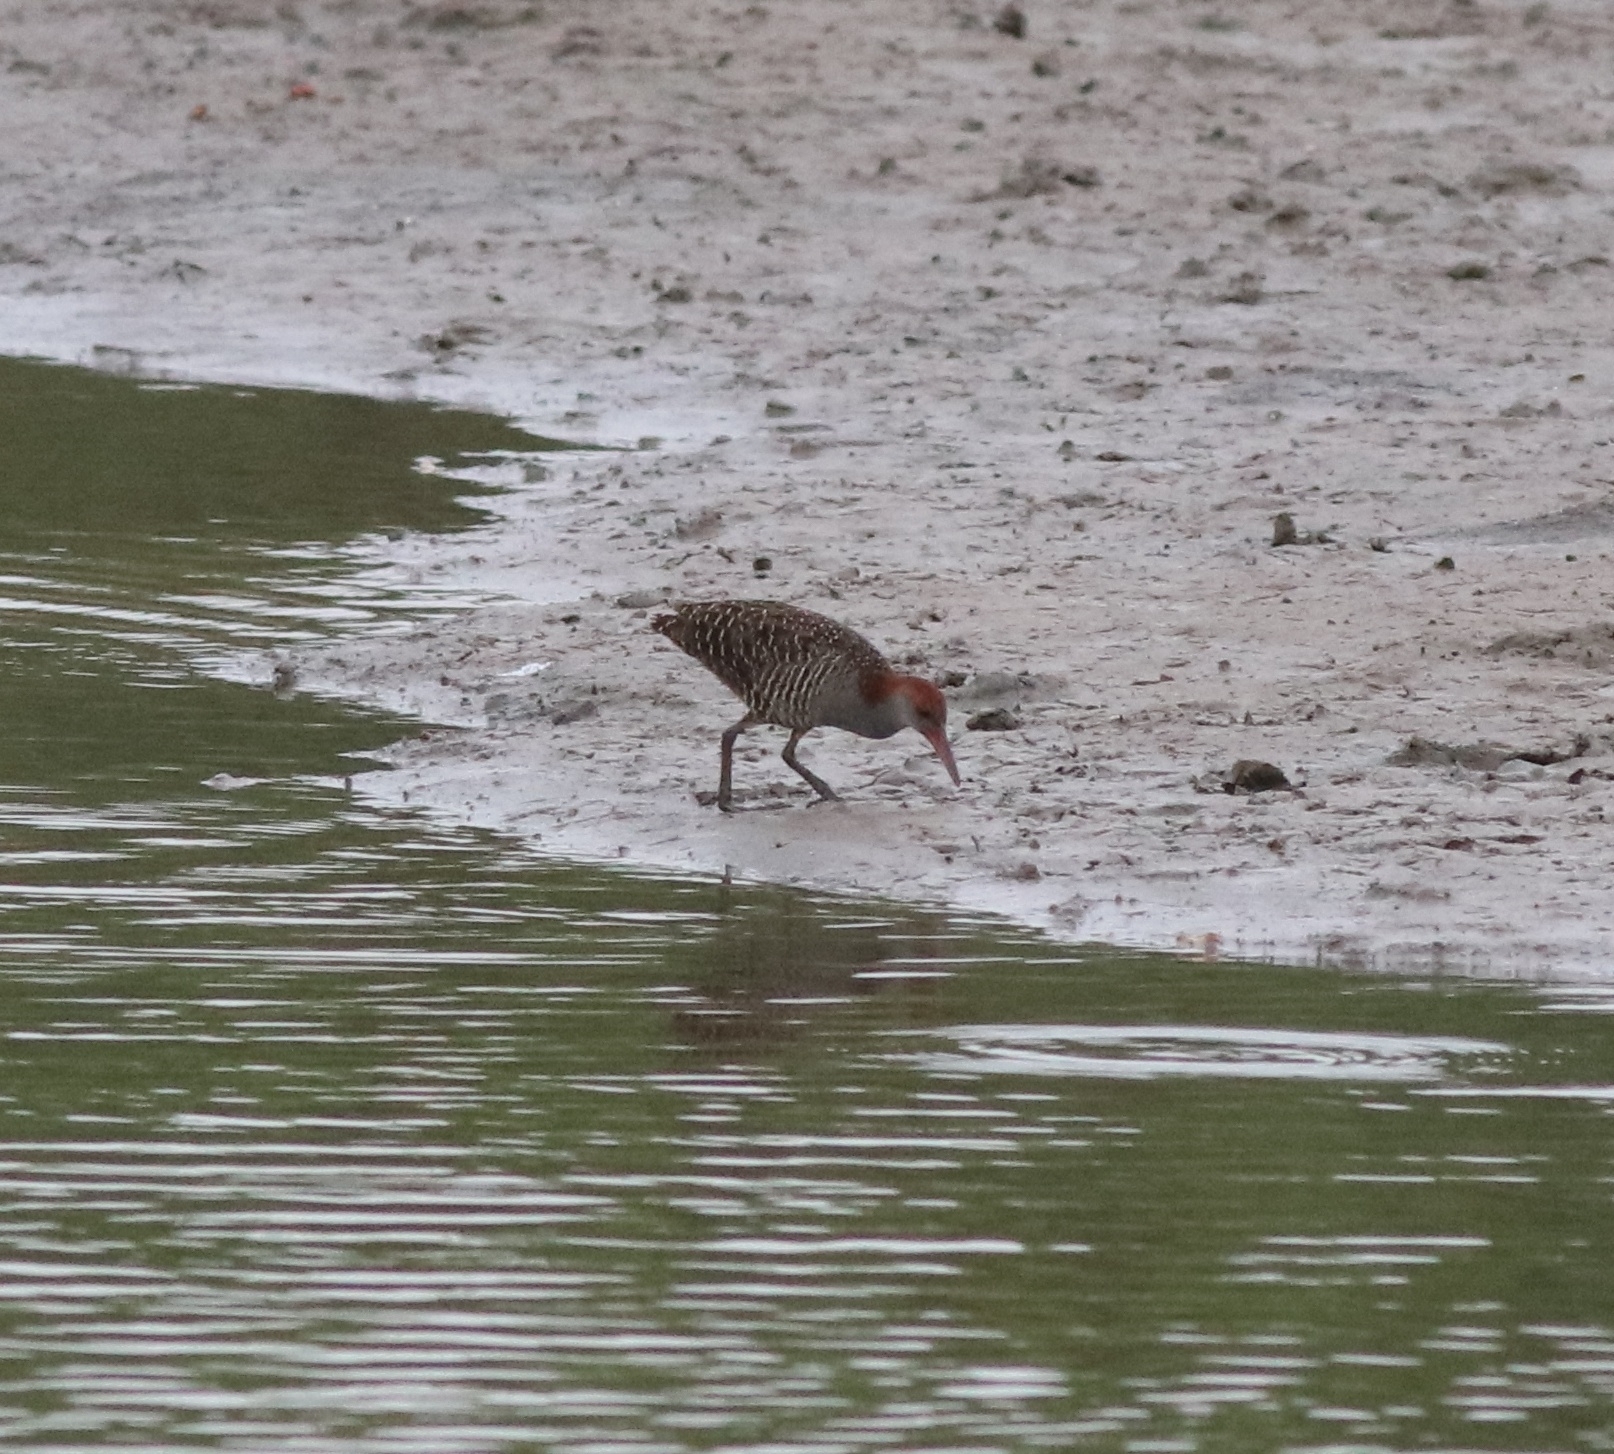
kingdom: Animalia
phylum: Chordata
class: Aves
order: Gruiformes
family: Rallidae
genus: Gallirallus
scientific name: Gallirallus striatus
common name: Slaty-breasted rail
